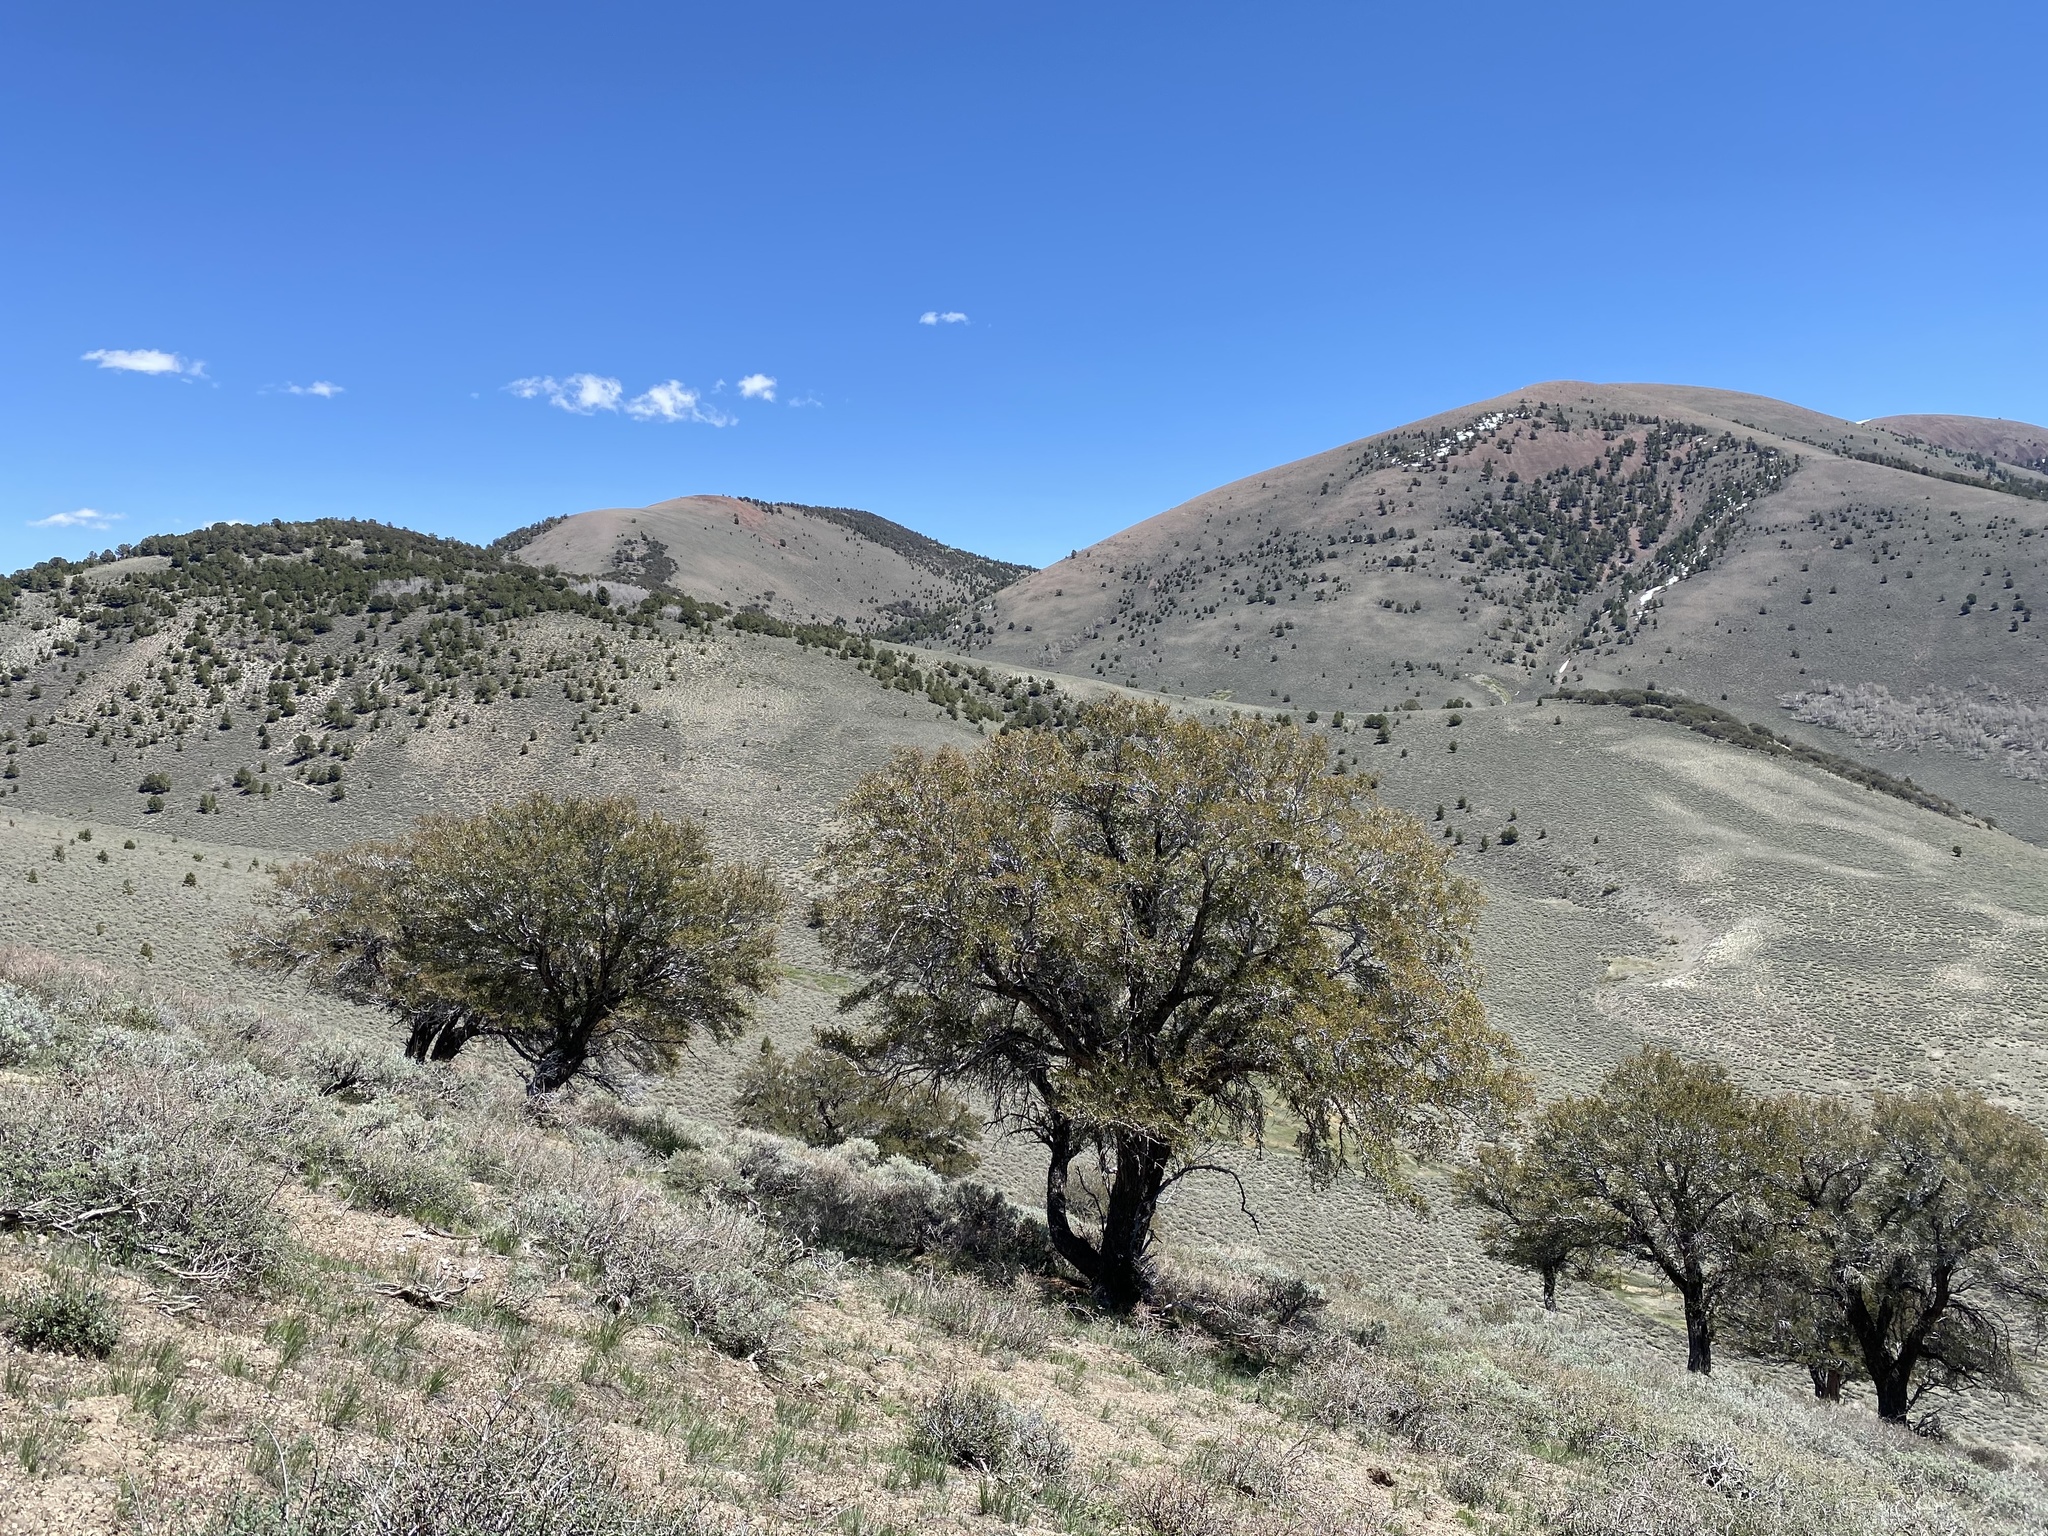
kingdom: Plantae
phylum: Tracheophyta
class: Magnoliopsida
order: Rosales
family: Rosaceae
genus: Cercocarpus
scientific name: Cercocarpus ledifolius
